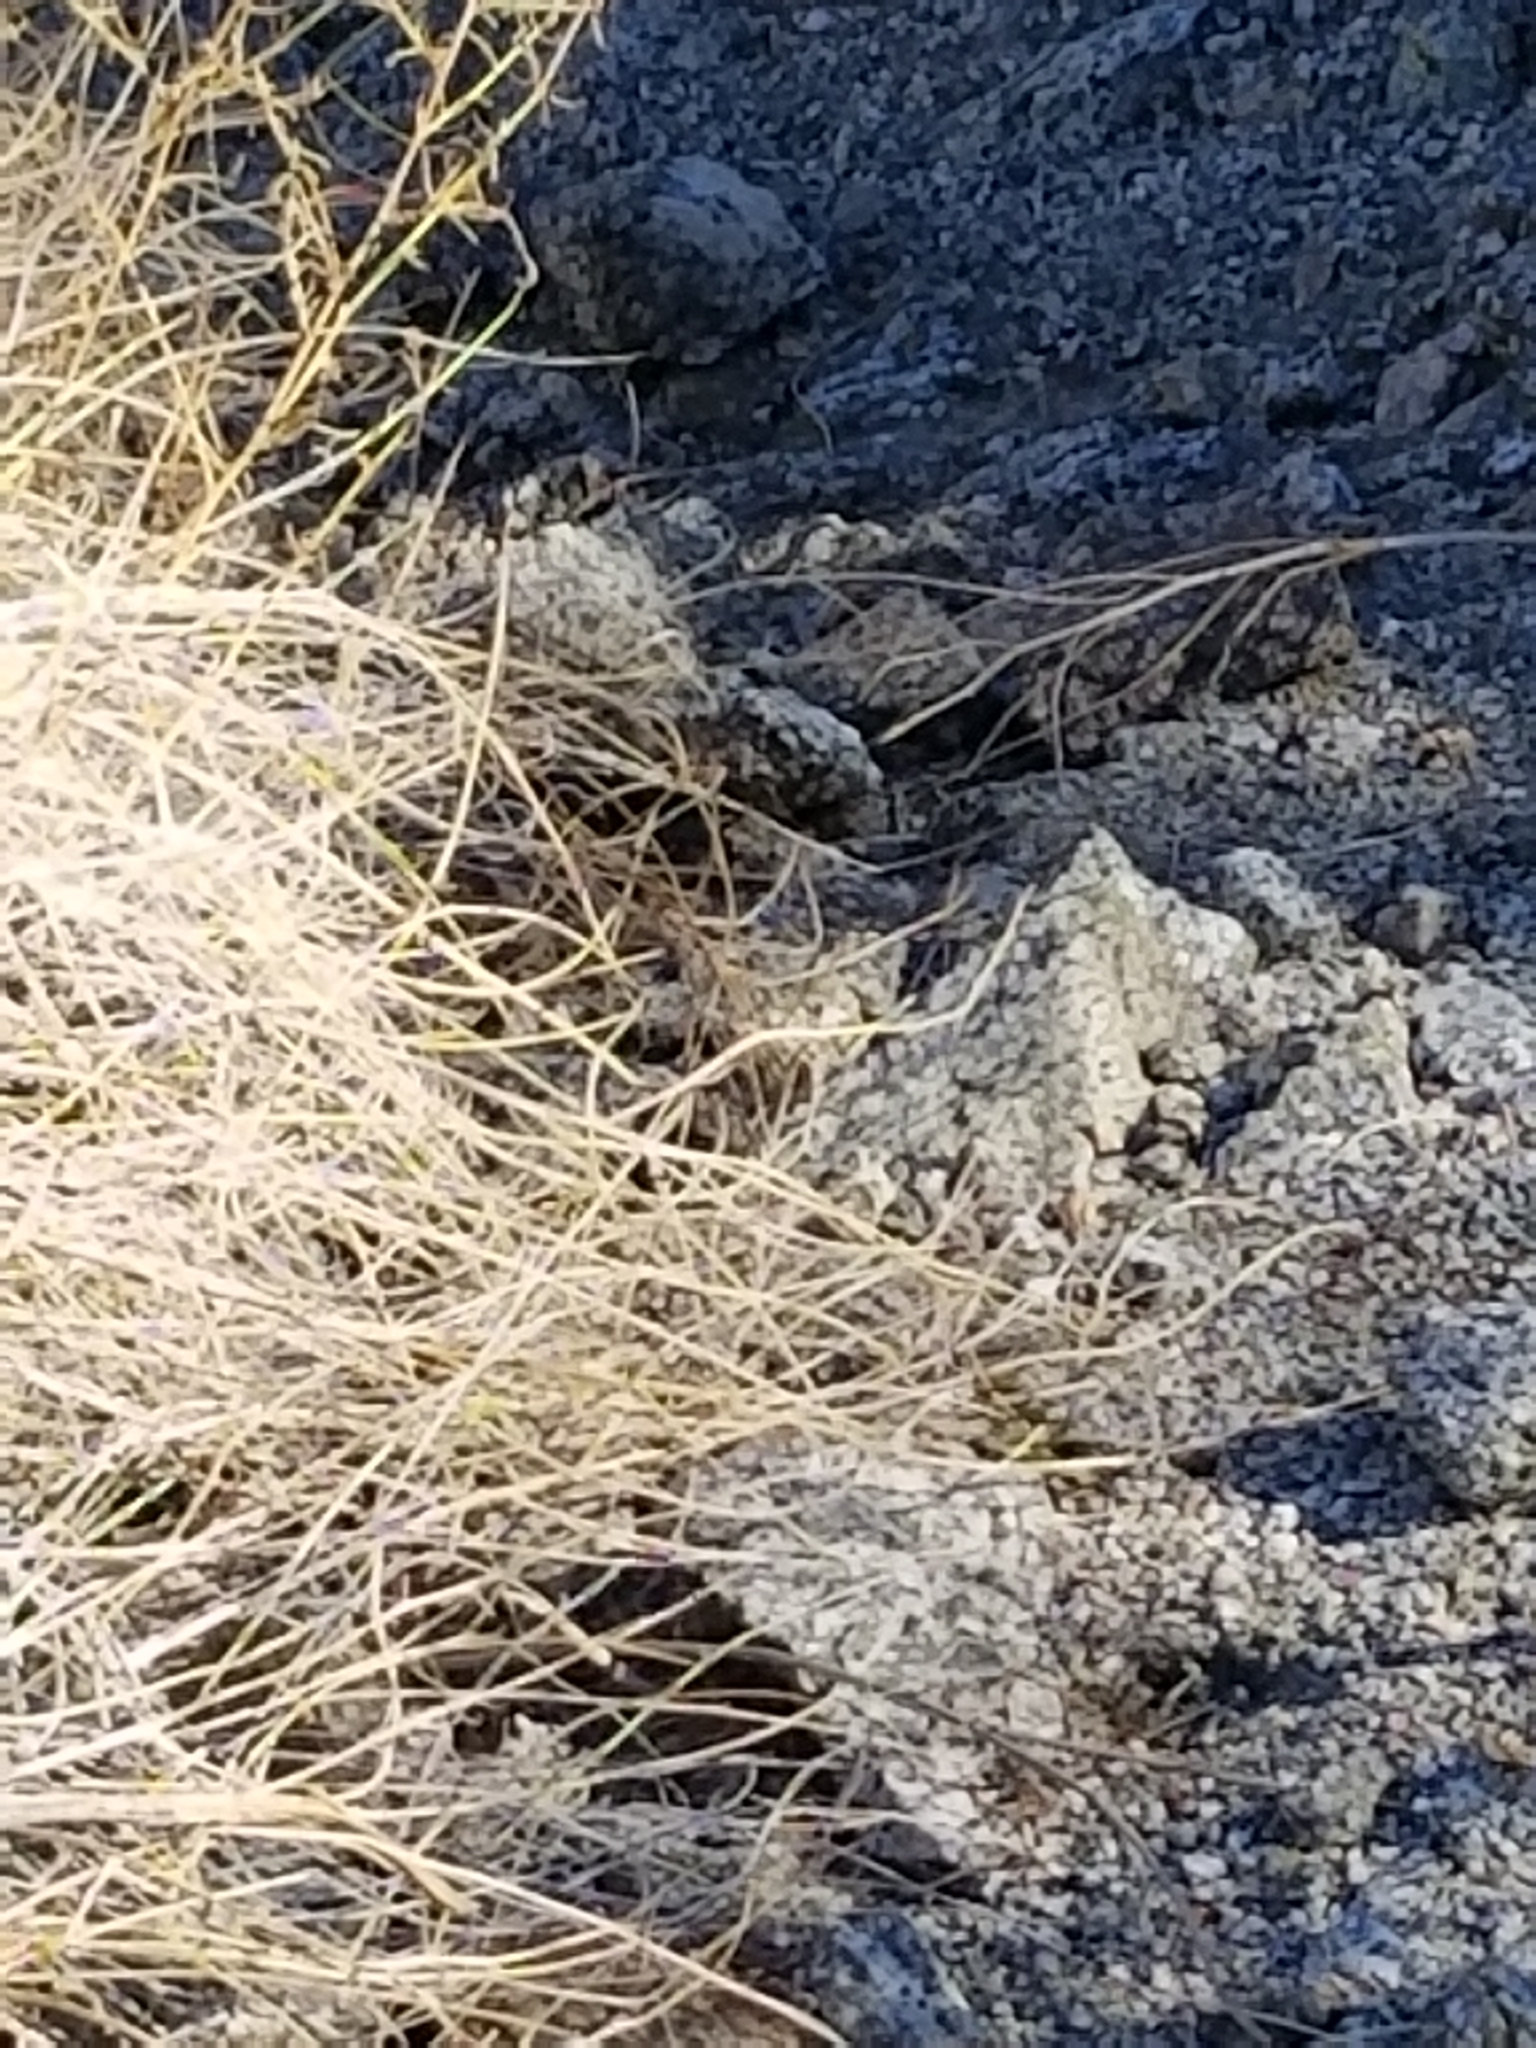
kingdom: Animalia
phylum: Chordata
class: Squamata
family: Phrynosomatidae
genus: Uta
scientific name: Uta stansburiana
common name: Side-blotched lizard
